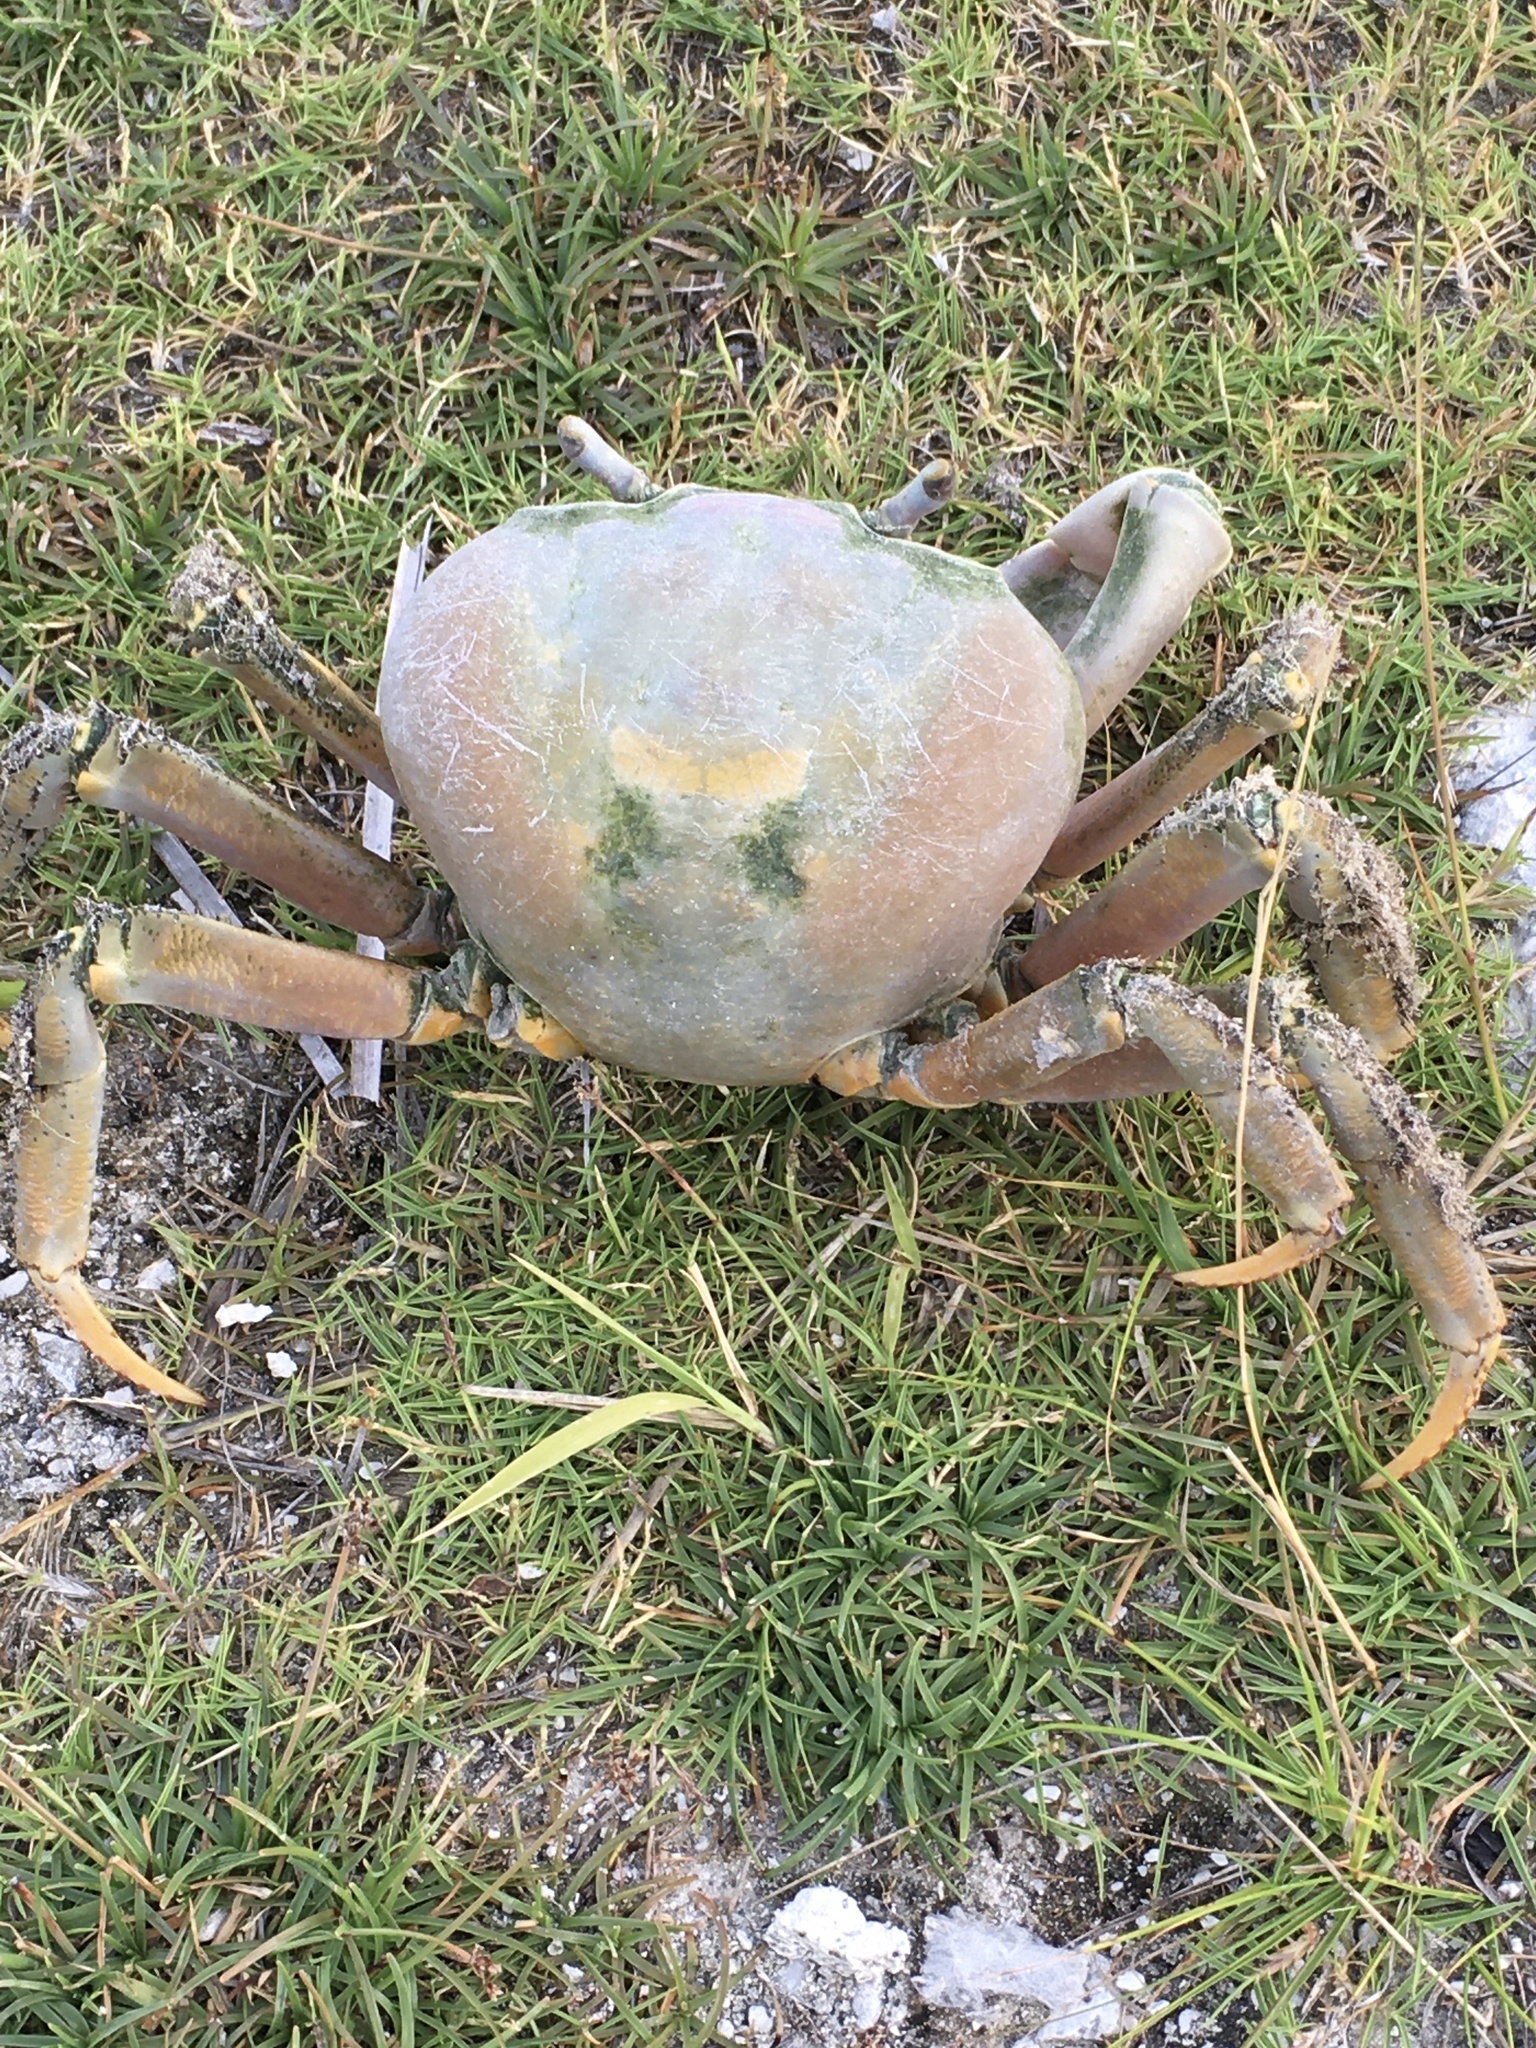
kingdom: Animalia
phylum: Arthropoda
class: Malacostraca
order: Decapoda
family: Gecarcinidae
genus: Cardisoma
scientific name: Cardisoma carnifex
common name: Brown land crab
